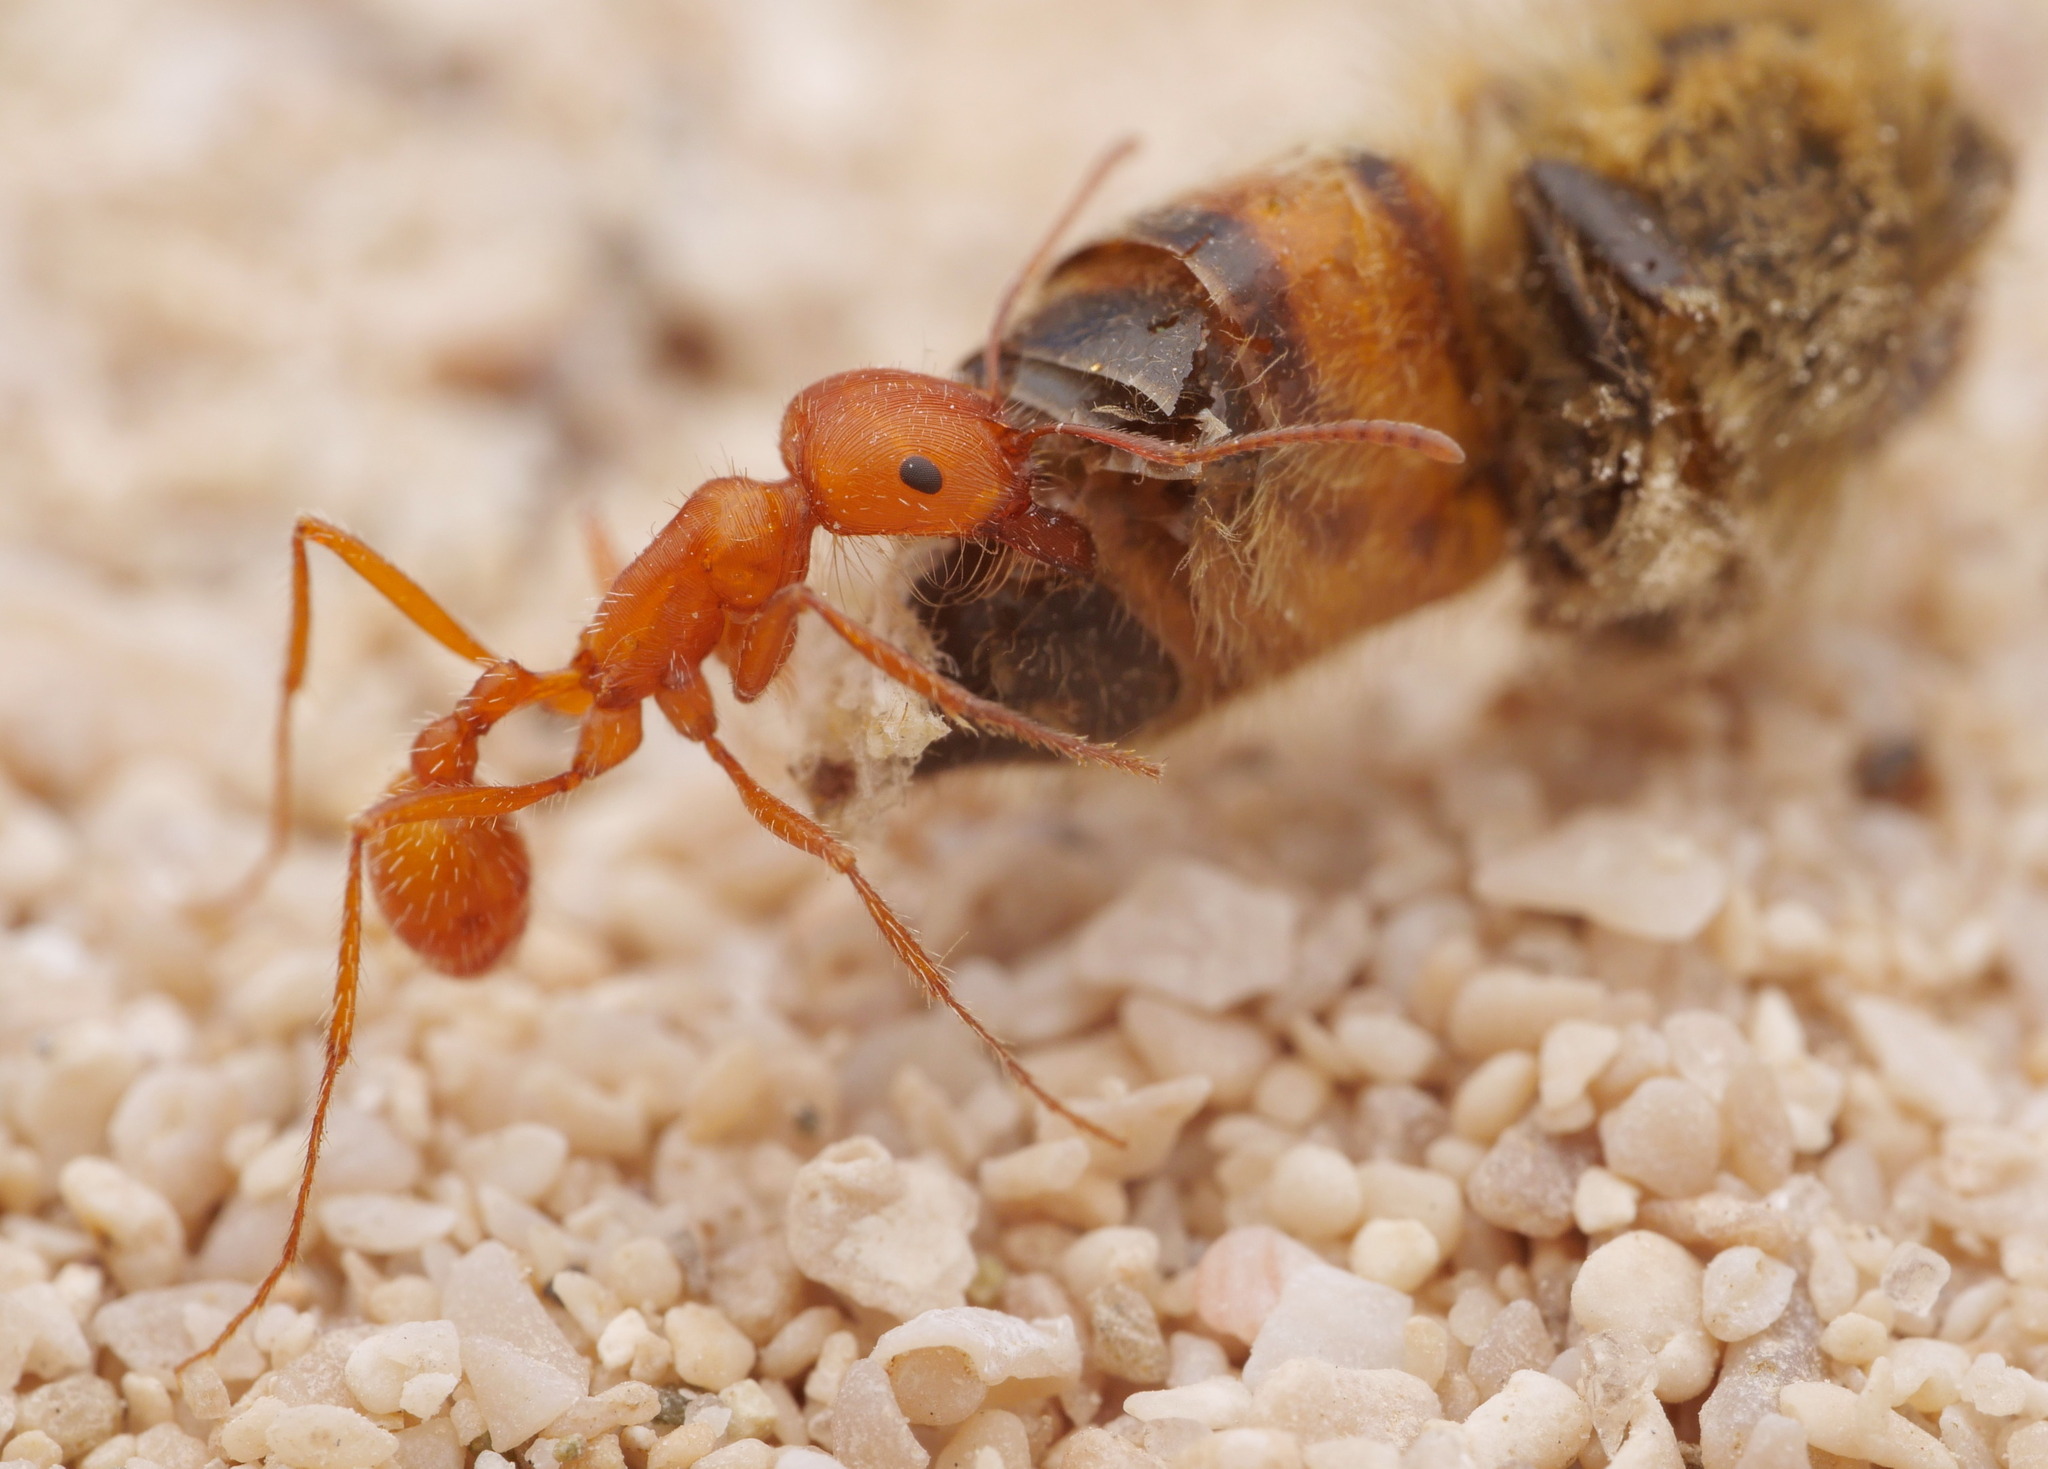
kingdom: Animalia
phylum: Arthropoda
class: Insecta
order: Hymenoptera
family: Formicidae
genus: Pogonomyrmex
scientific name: Pogonomyrmex californicus
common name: California harvester ant
